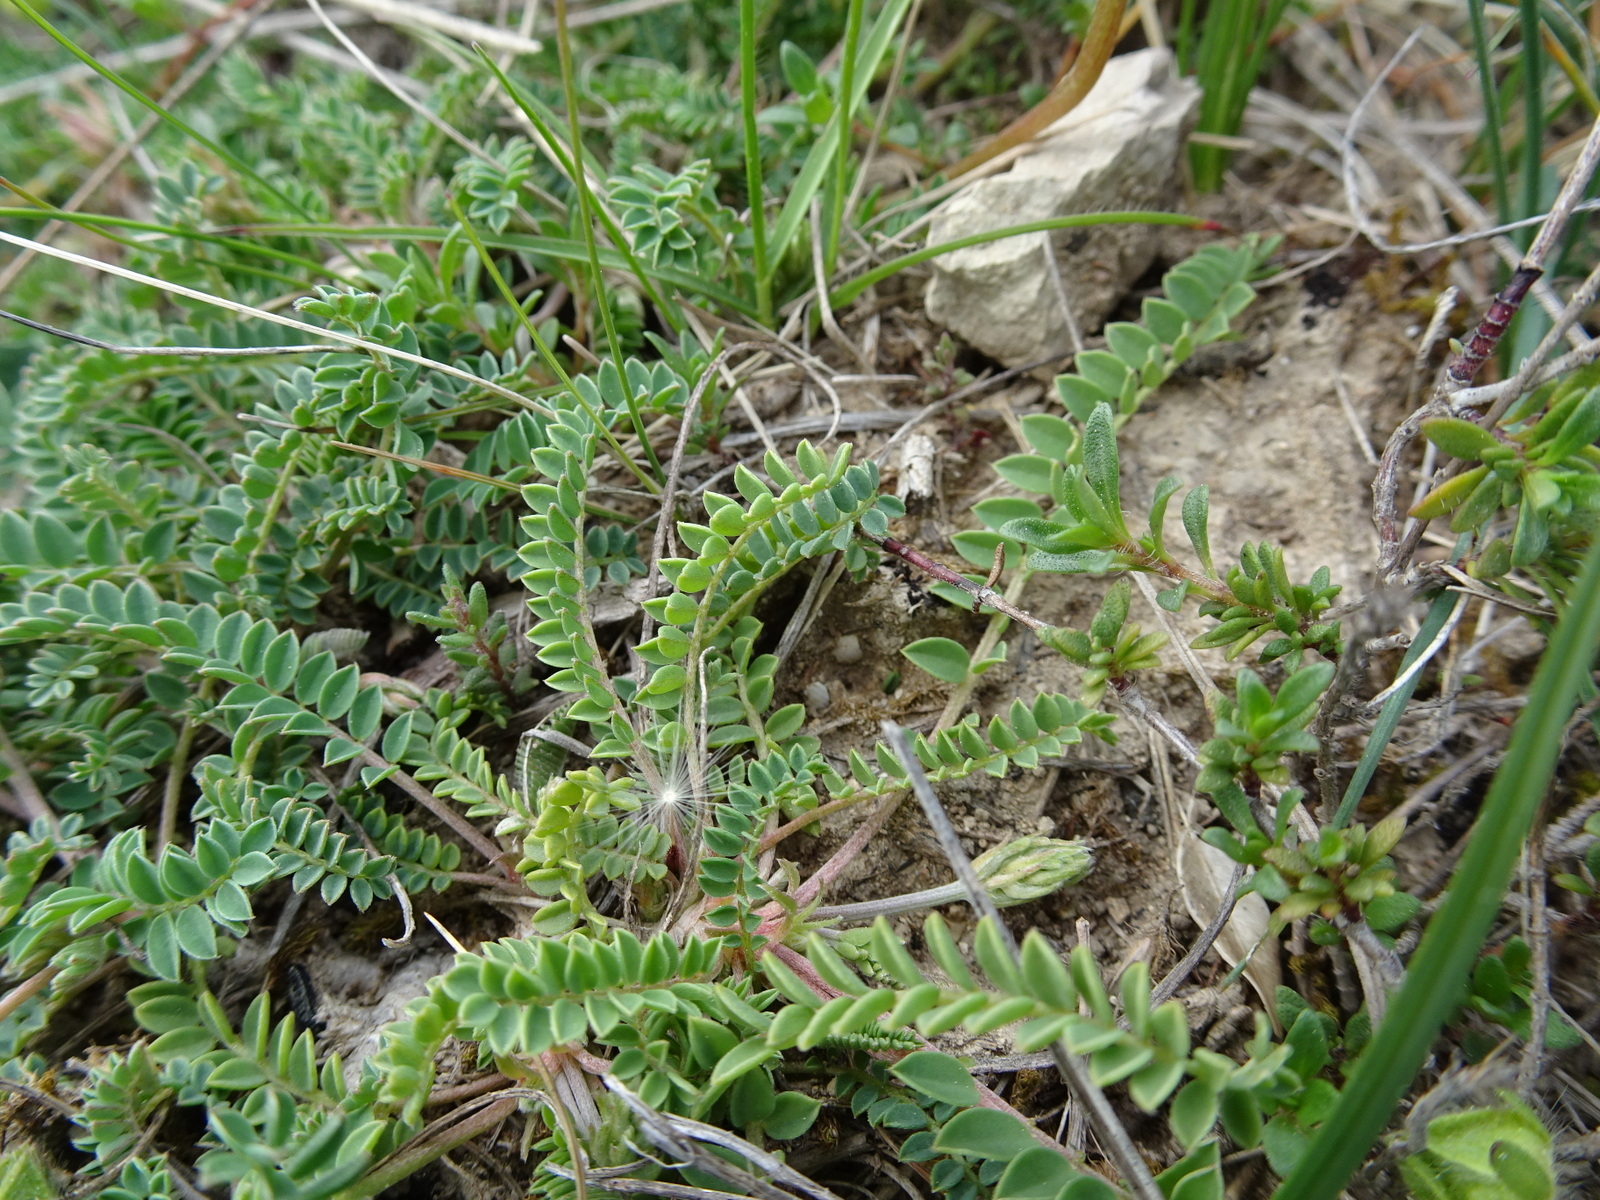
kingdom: Plantae
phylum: Tracheophyta
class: Magnoliopsida
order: Fabales
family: Fabaceae
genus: Astragalus
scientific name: Astragalus monspessulanus
